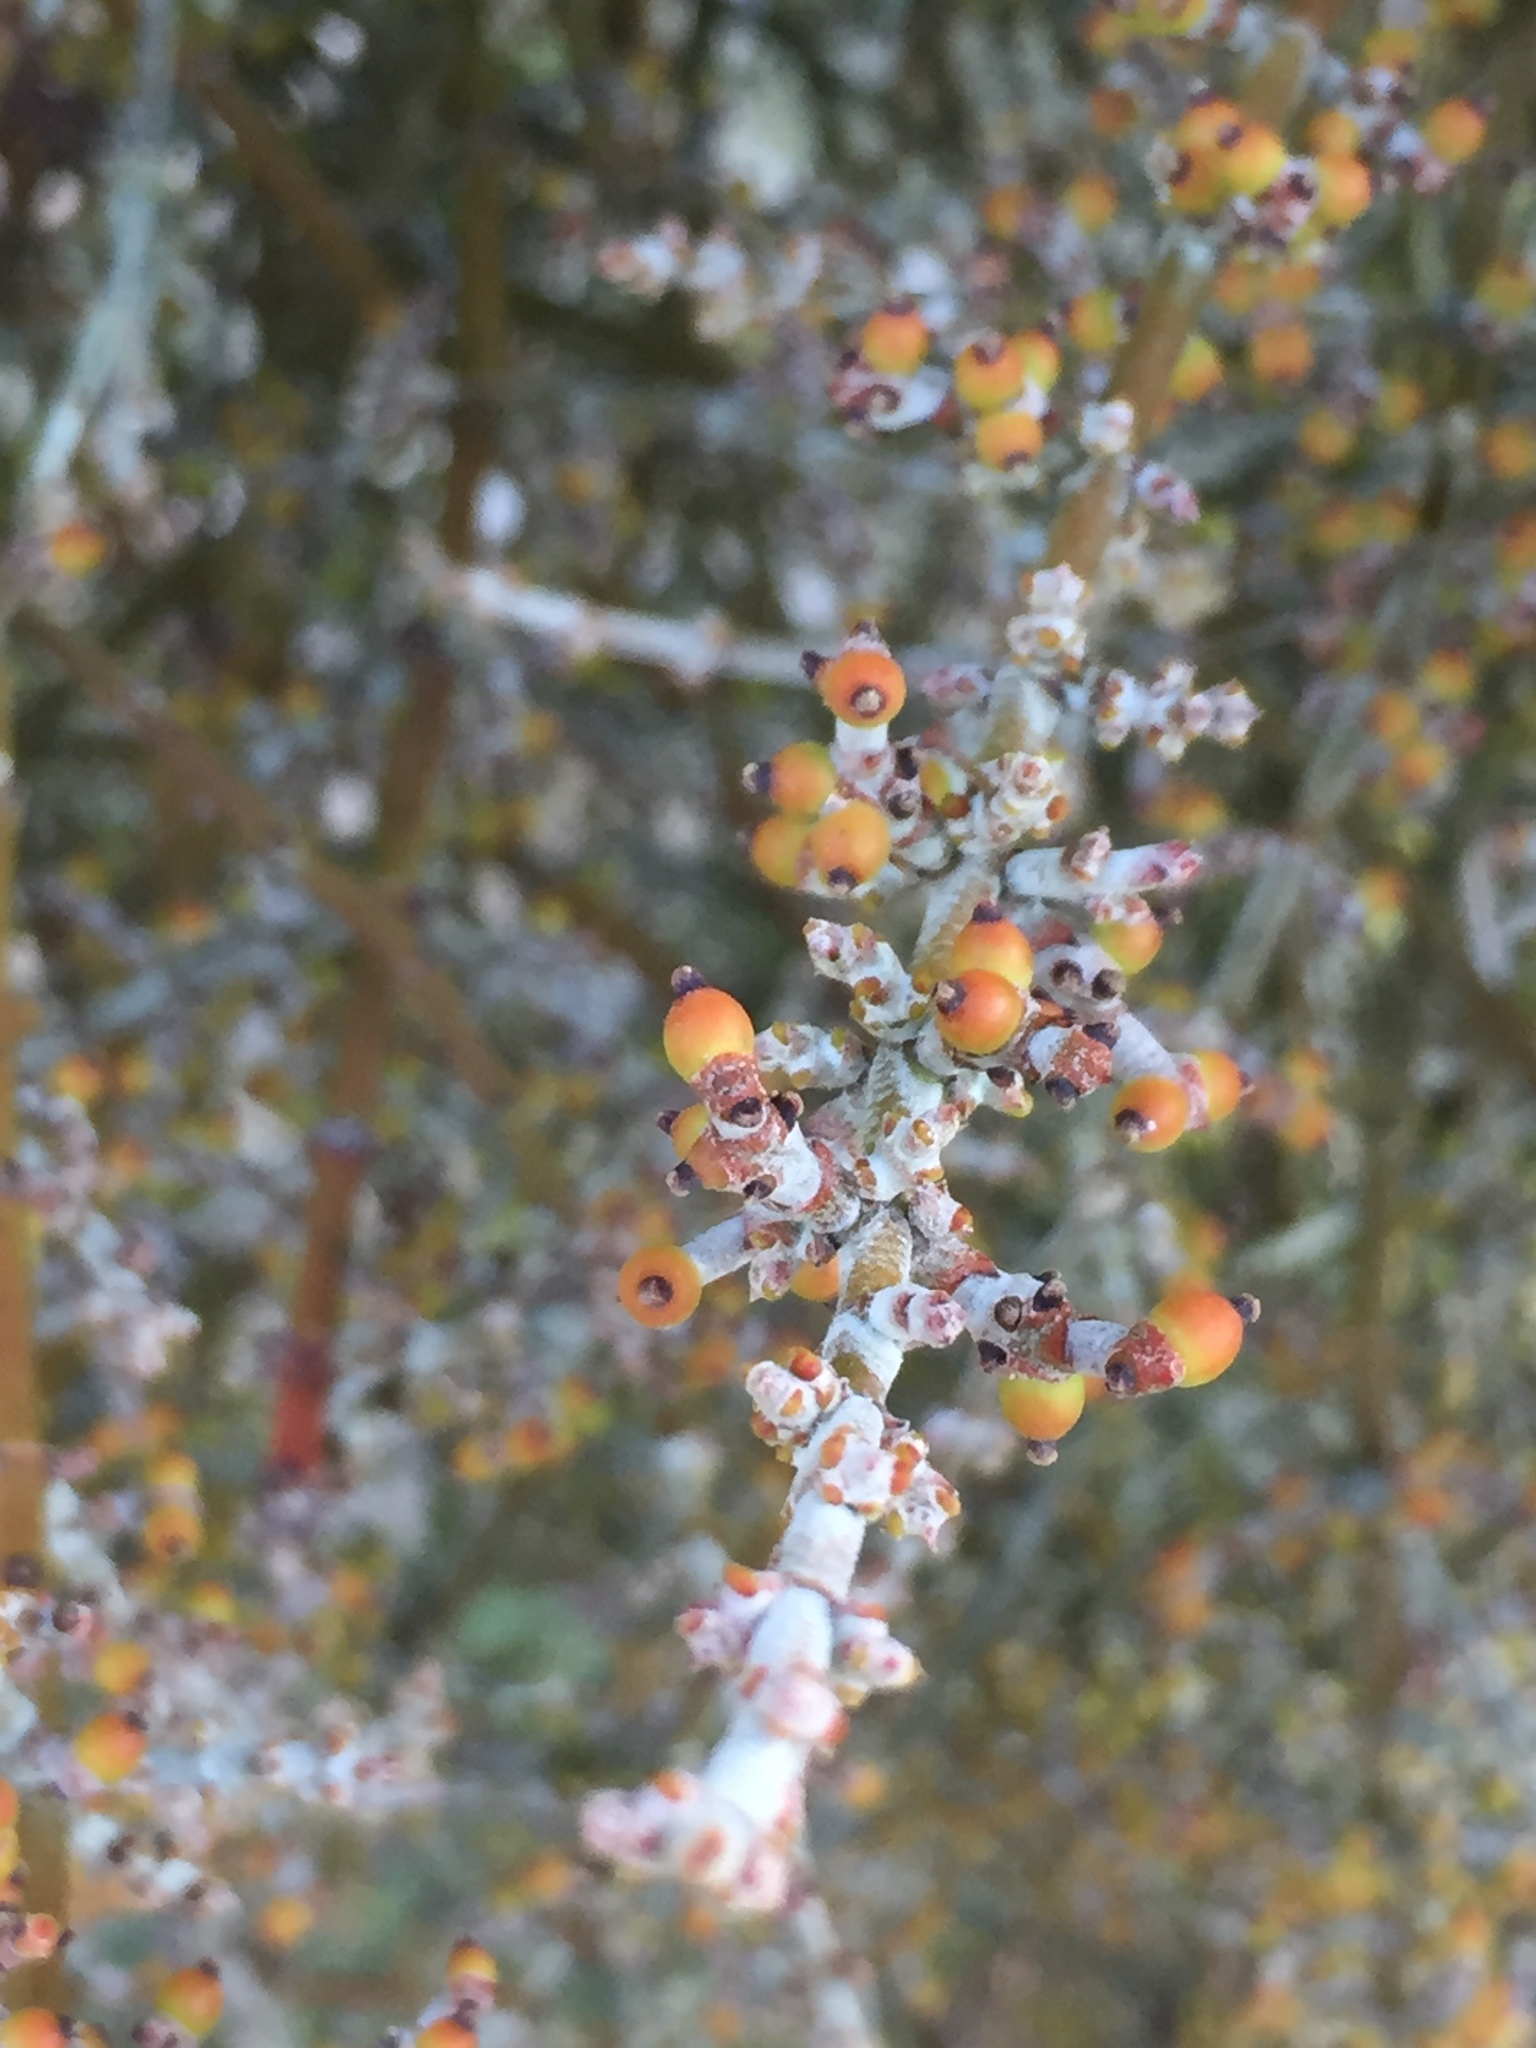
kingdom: Plantae
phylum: Tracheophyta
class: Magnoliopsida
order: Santalales
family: Viscaceae
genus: Phoradendron
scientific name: Phoradendron californicum
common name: Acacia mistletoe
